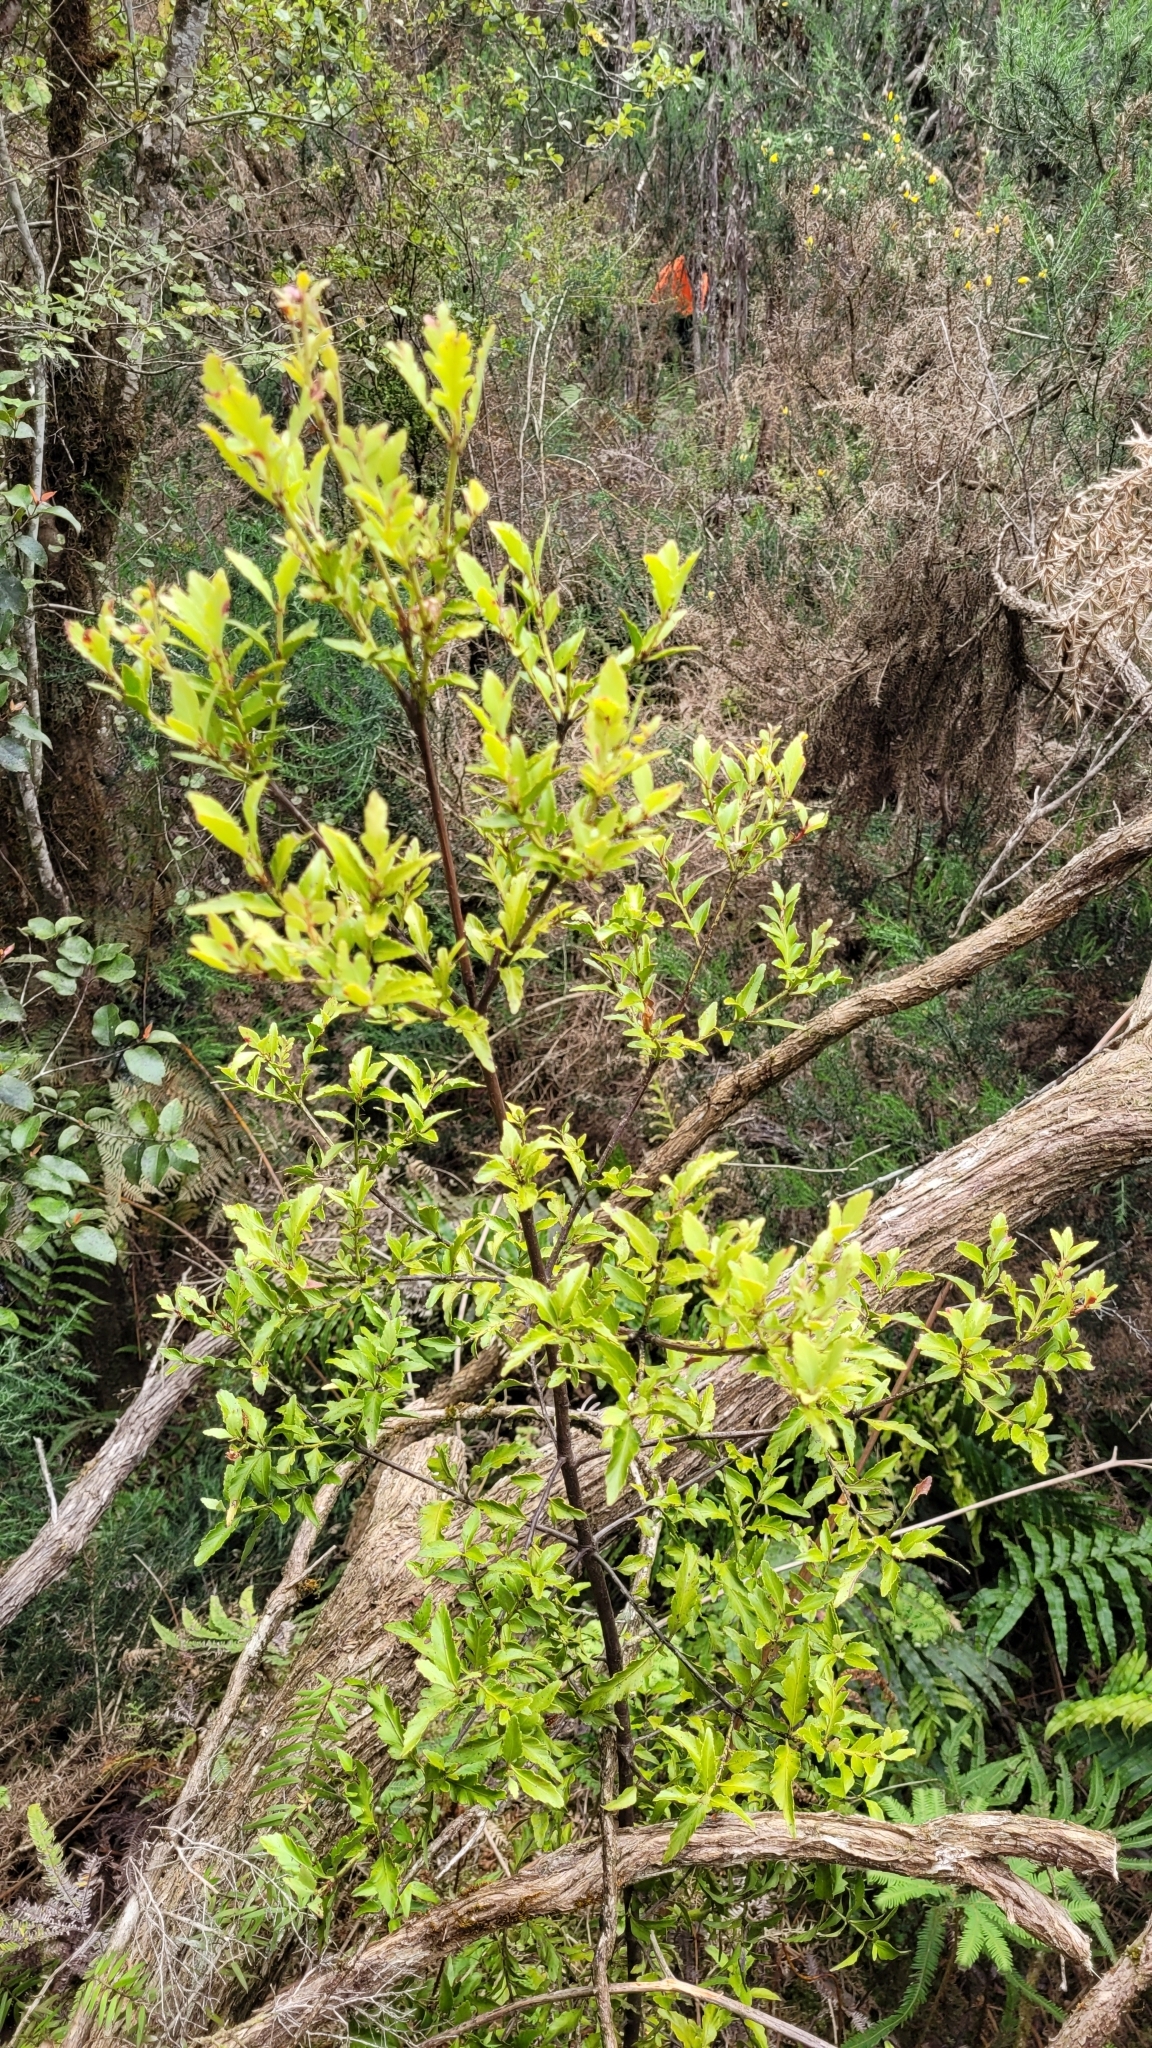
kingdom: Plantae
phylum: Tracheophyta
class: Pinopsida
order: Pinales
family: Phyllocladaceae
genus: Phyllocladus
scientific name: Phyllocladus trichomanoides
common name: Celery pine
